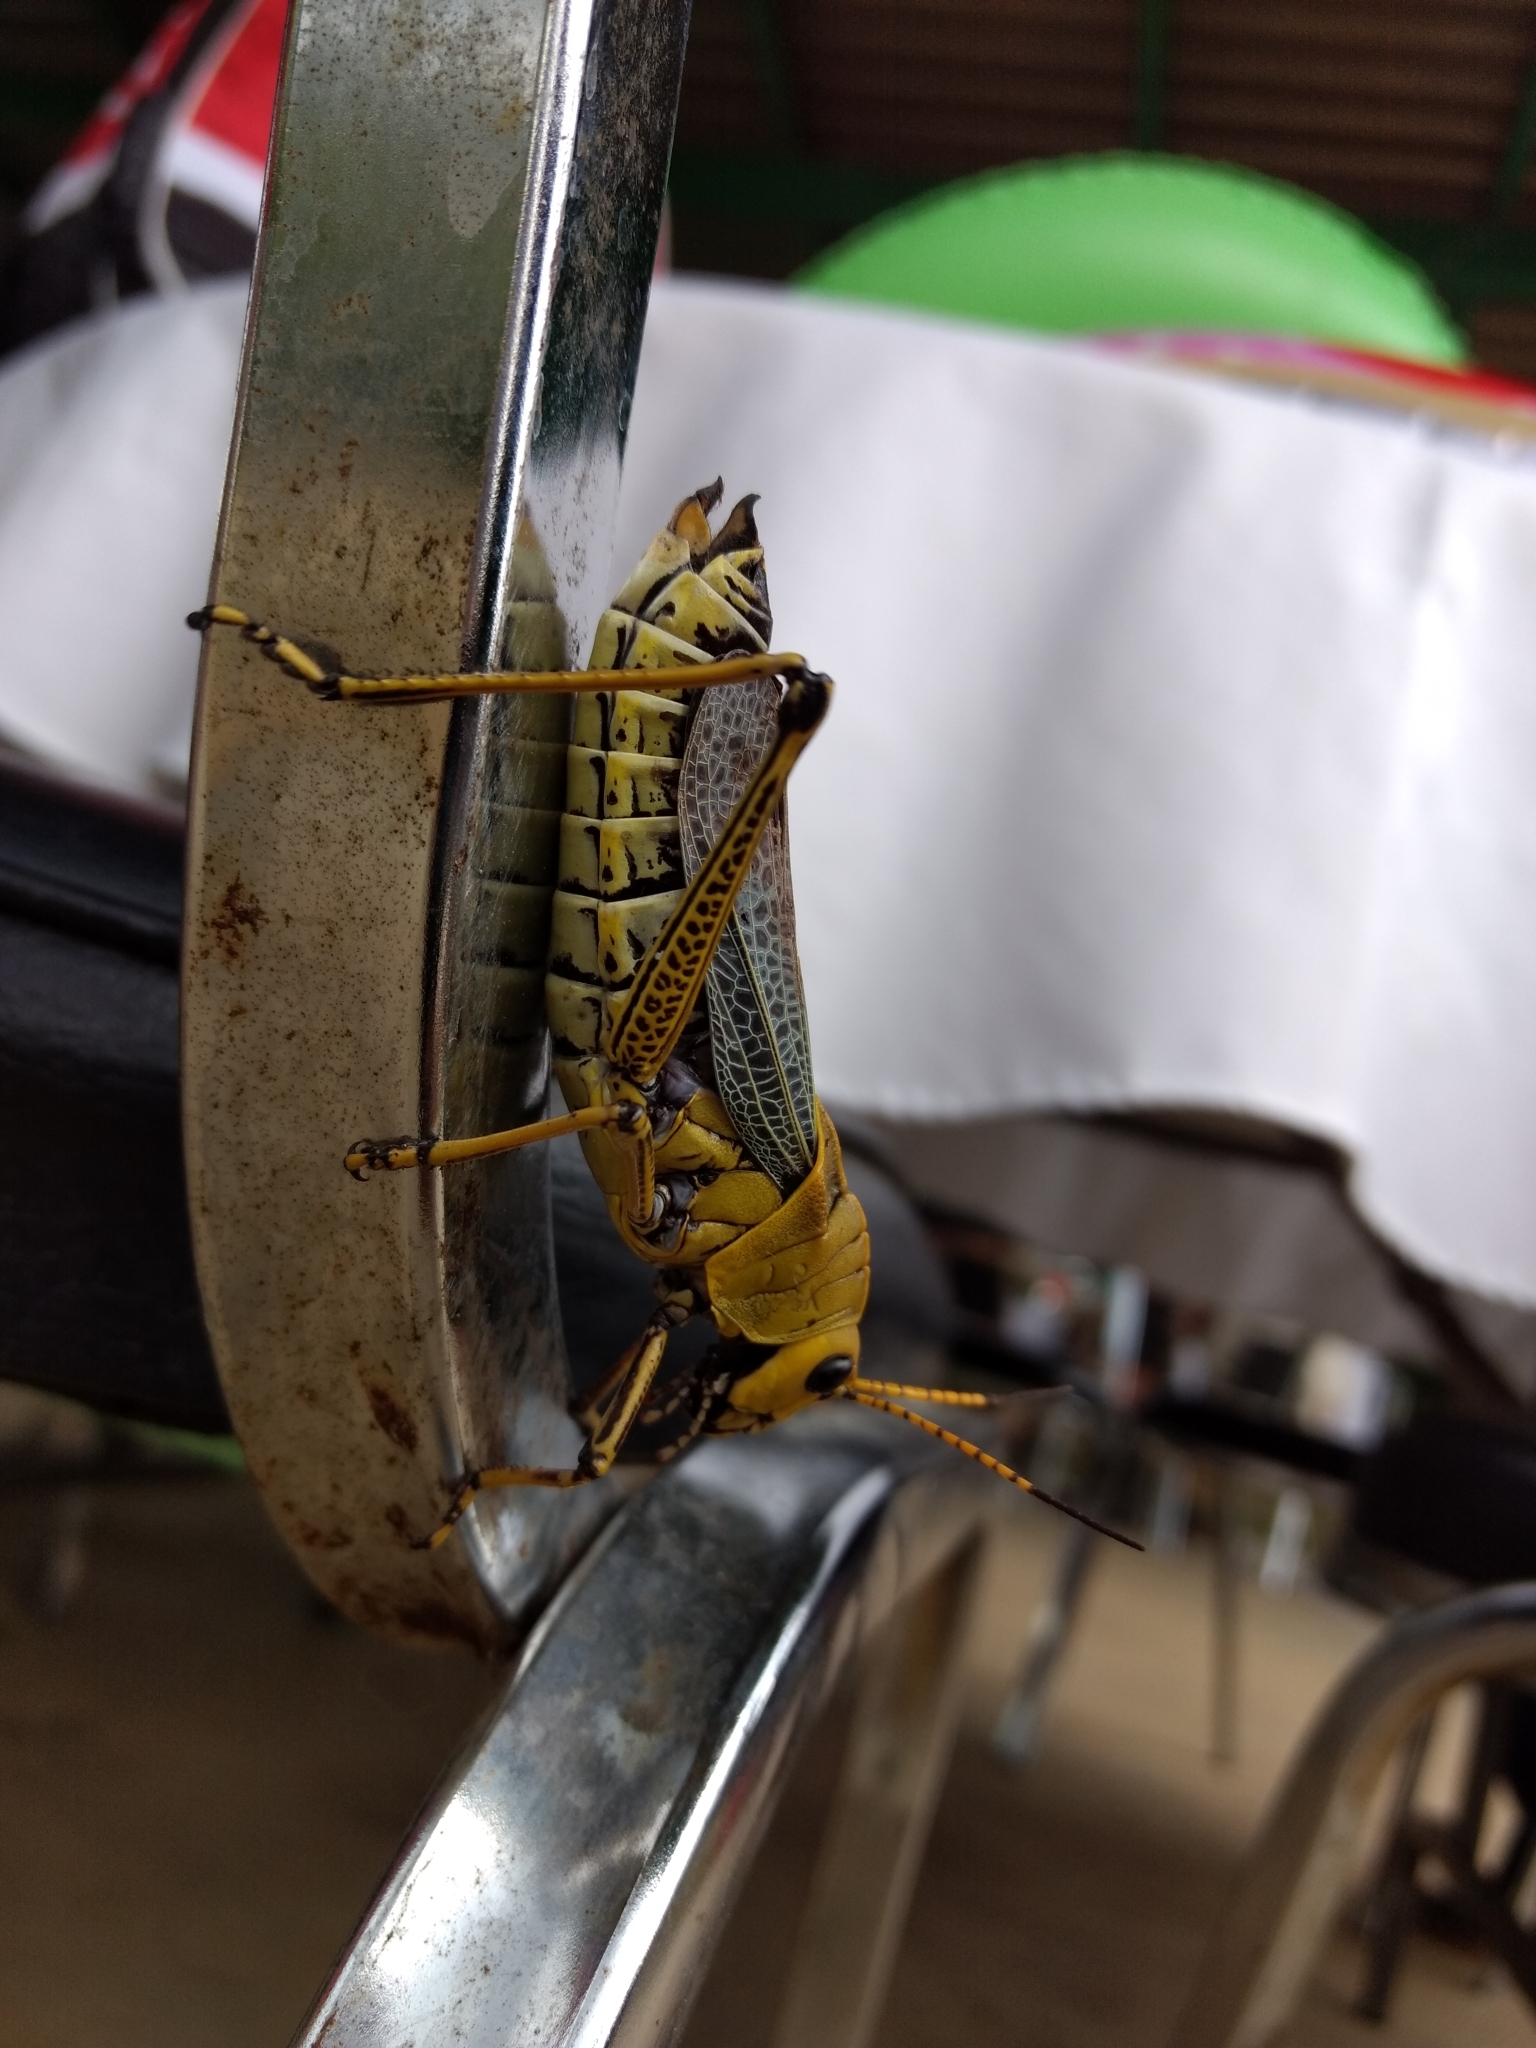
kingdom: Animalia
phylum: Arthropoda
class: Insecta
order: Orthoptera
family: Romaleidae
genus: Romalea
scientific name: Romalea
